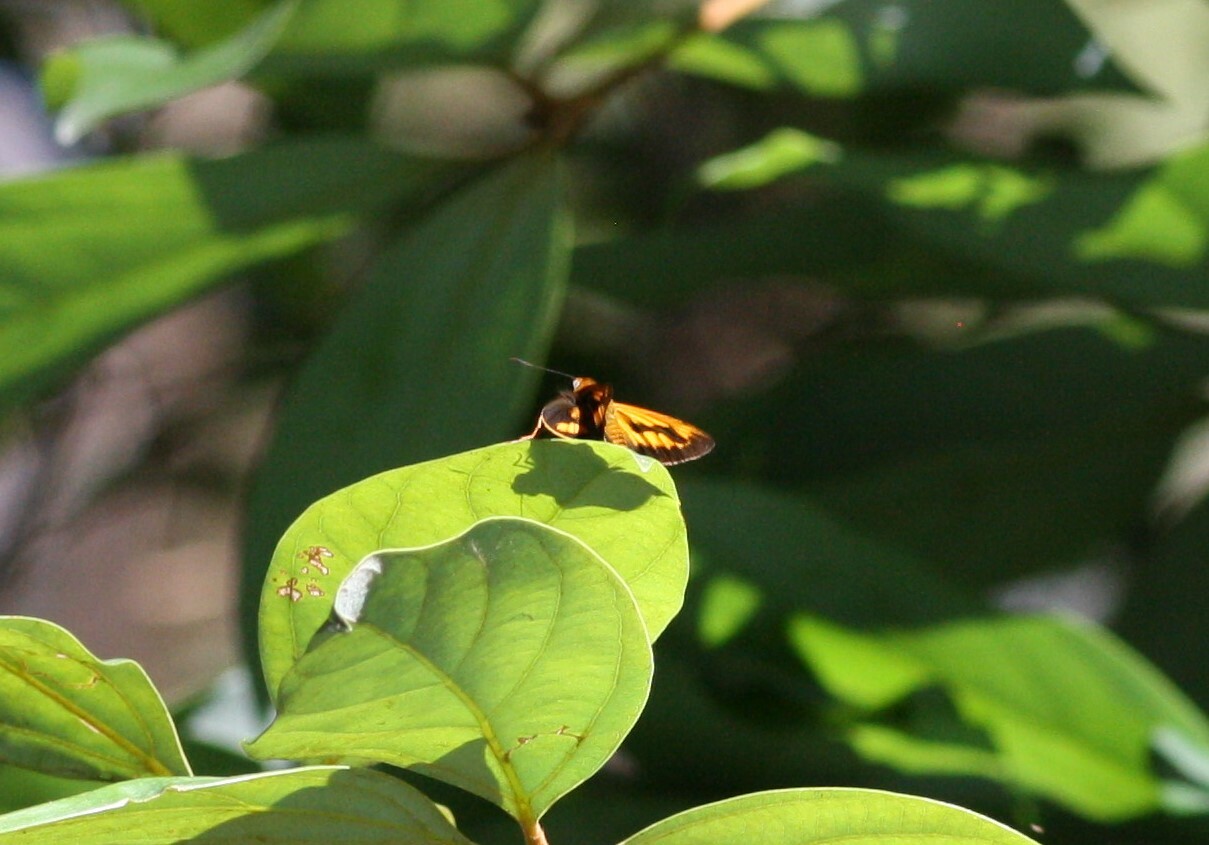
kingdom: Animalia
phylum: Arthropoda
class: Insecta
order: Lepidoptera
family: Hesperiidae
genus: Cephrenes
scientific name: Cephrenes augiades
